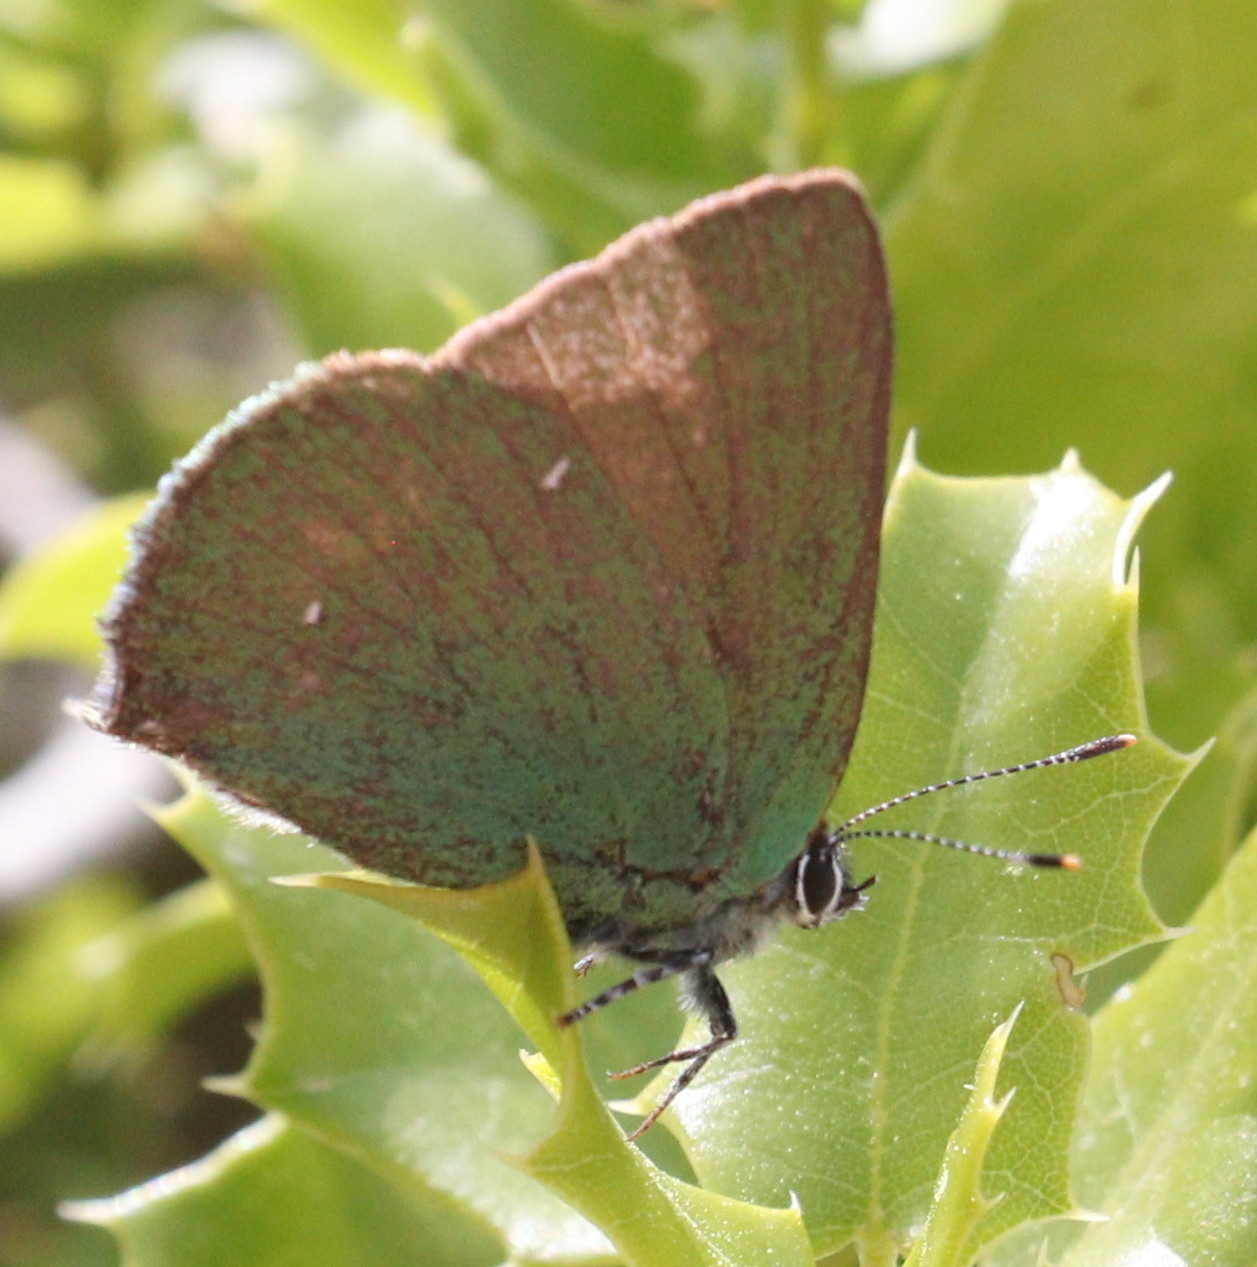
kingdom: Animalia
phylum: Arthropoda
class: Insecta
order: Lepidoptera
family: Lycaenidae
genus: Callophrys
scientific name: Callophrys
